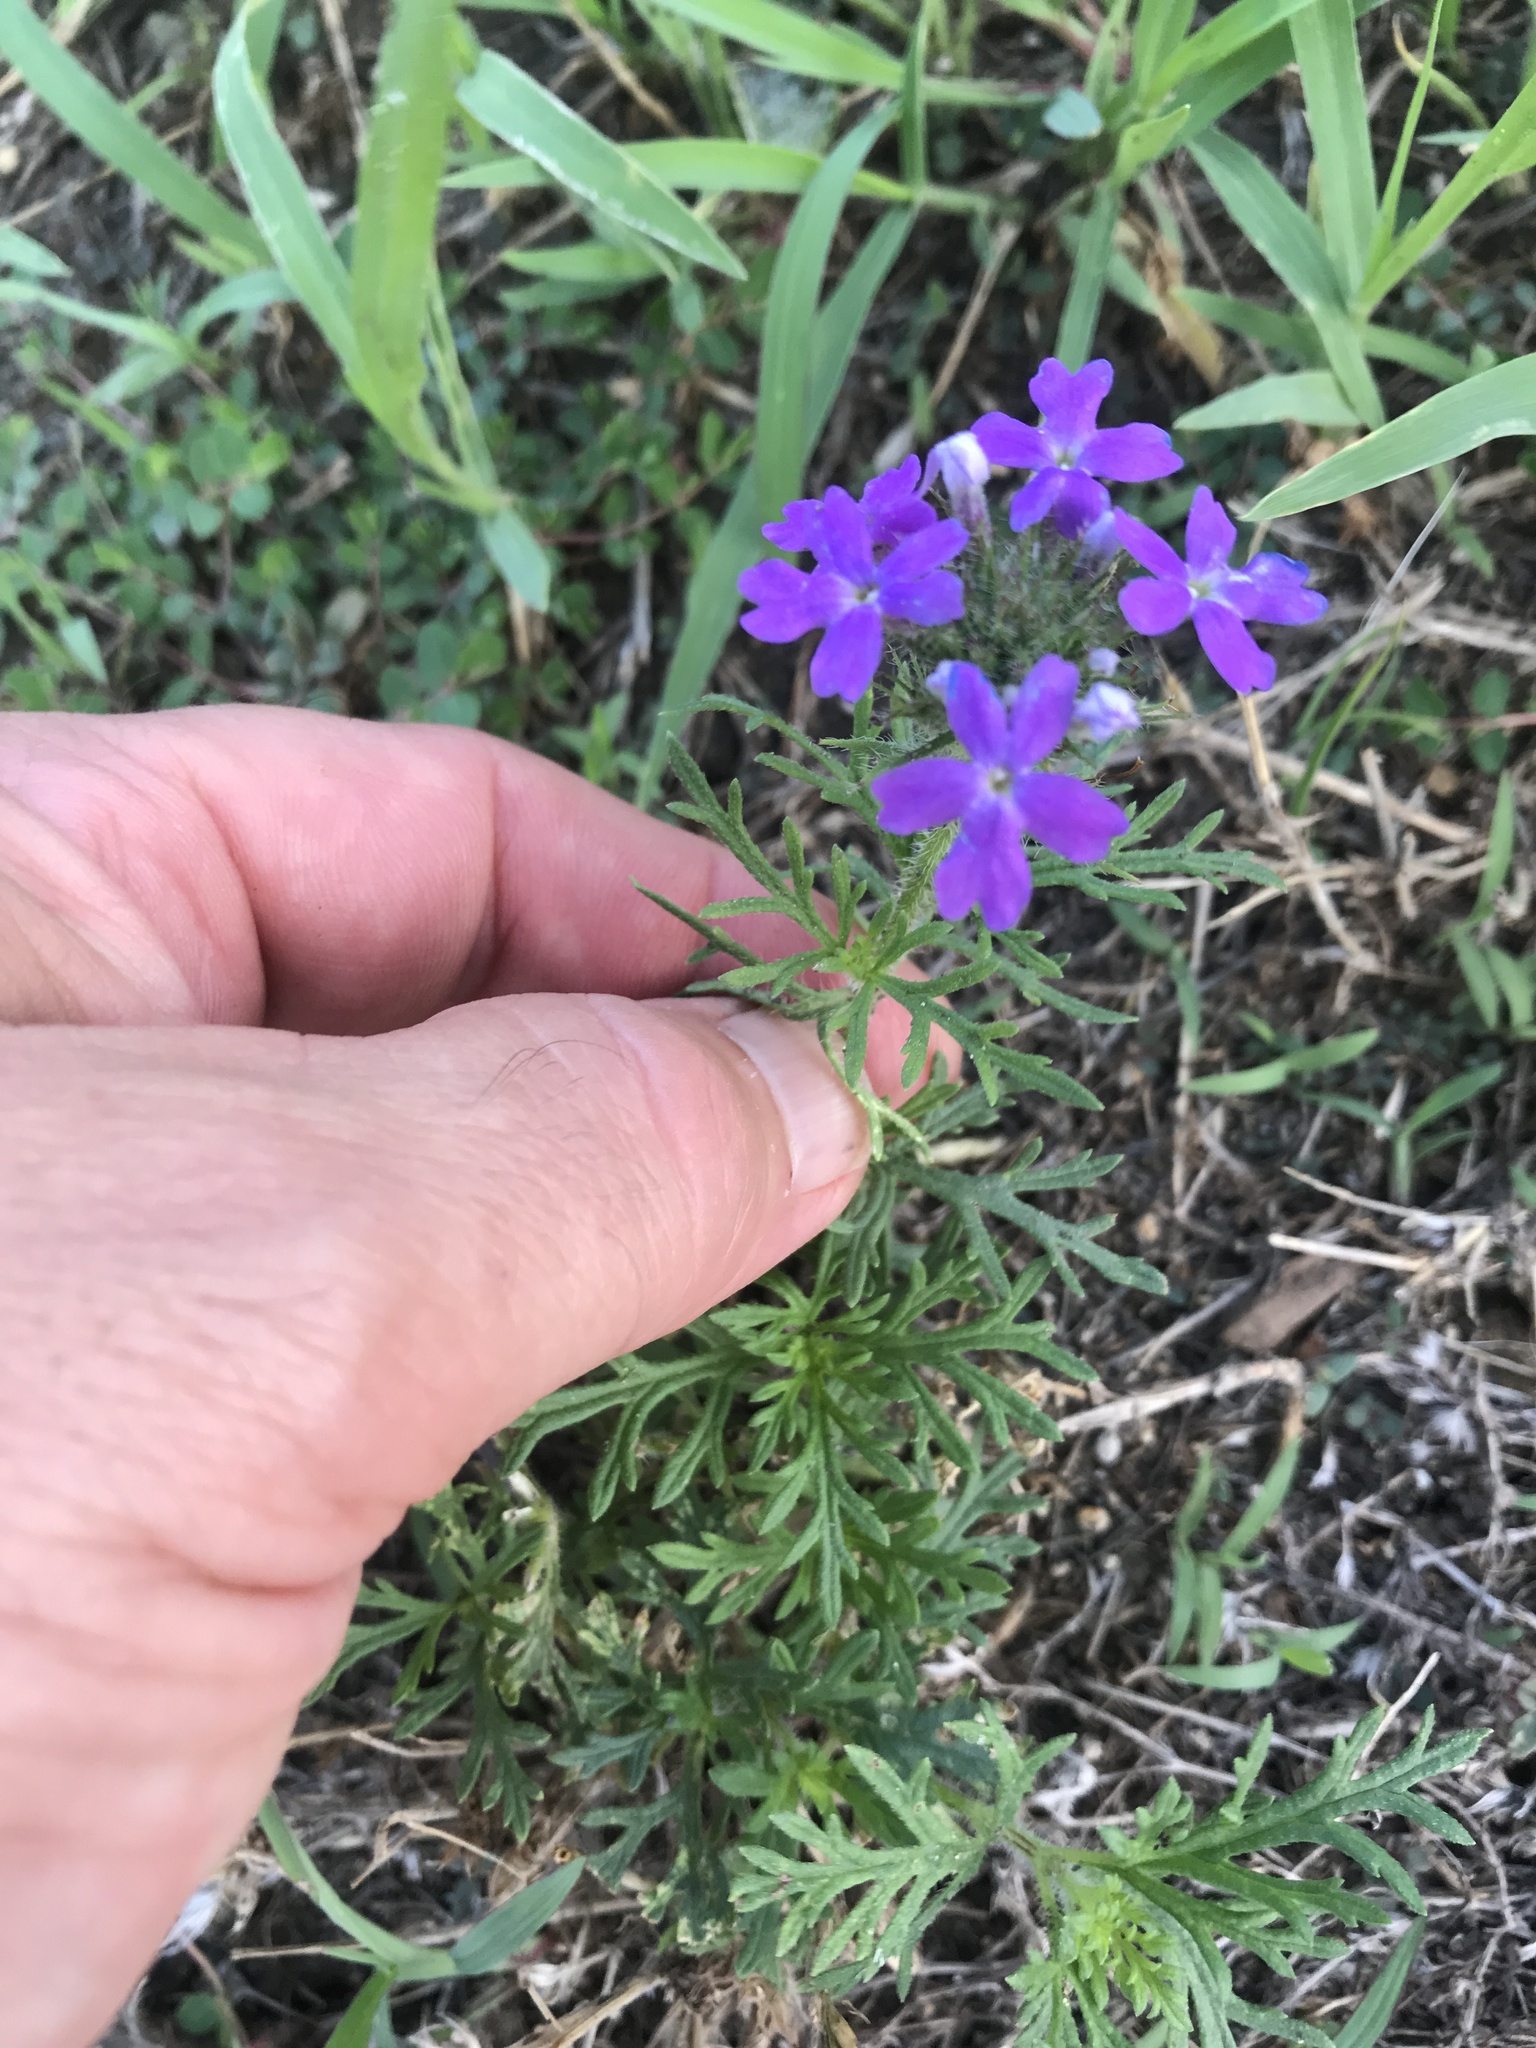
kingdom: Plantae
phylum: Tracheophyta
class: Magnoliopsida
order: Lamiales
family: Verbenaceae
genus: Verbena
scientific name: Verbena bipinnatifida
